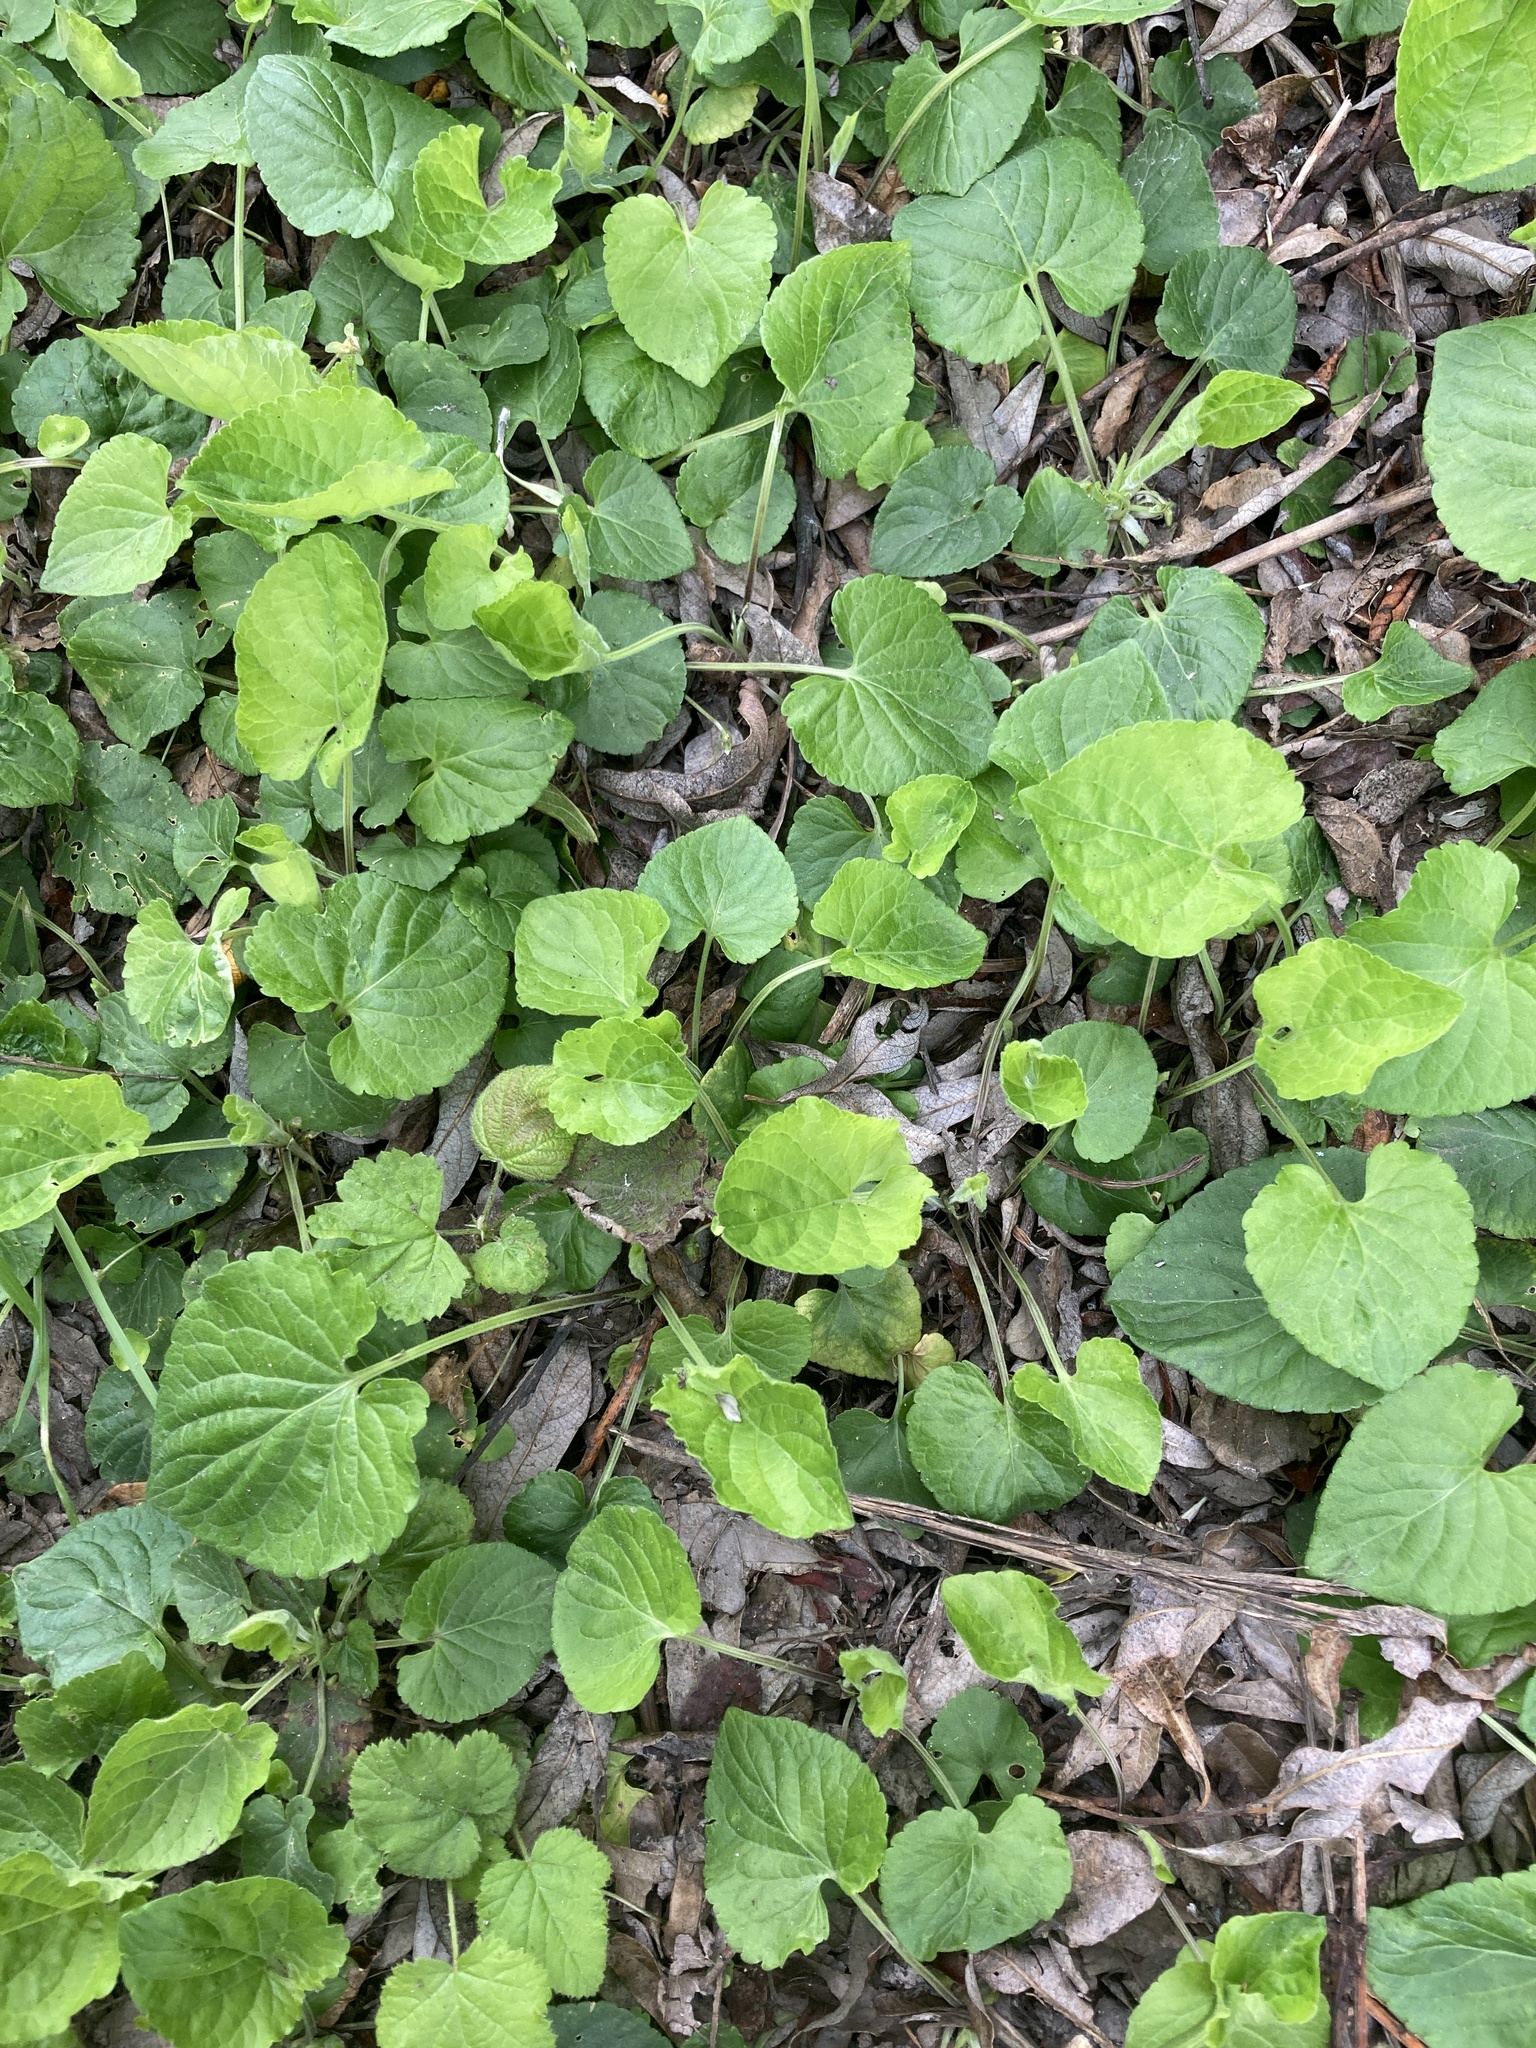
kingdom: Plantae
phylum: Tracheophyta
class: Magnoliopsida
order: Malpighiales
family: Violaceae
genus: Viola
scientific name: Viola odorata
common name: Sweet violet
